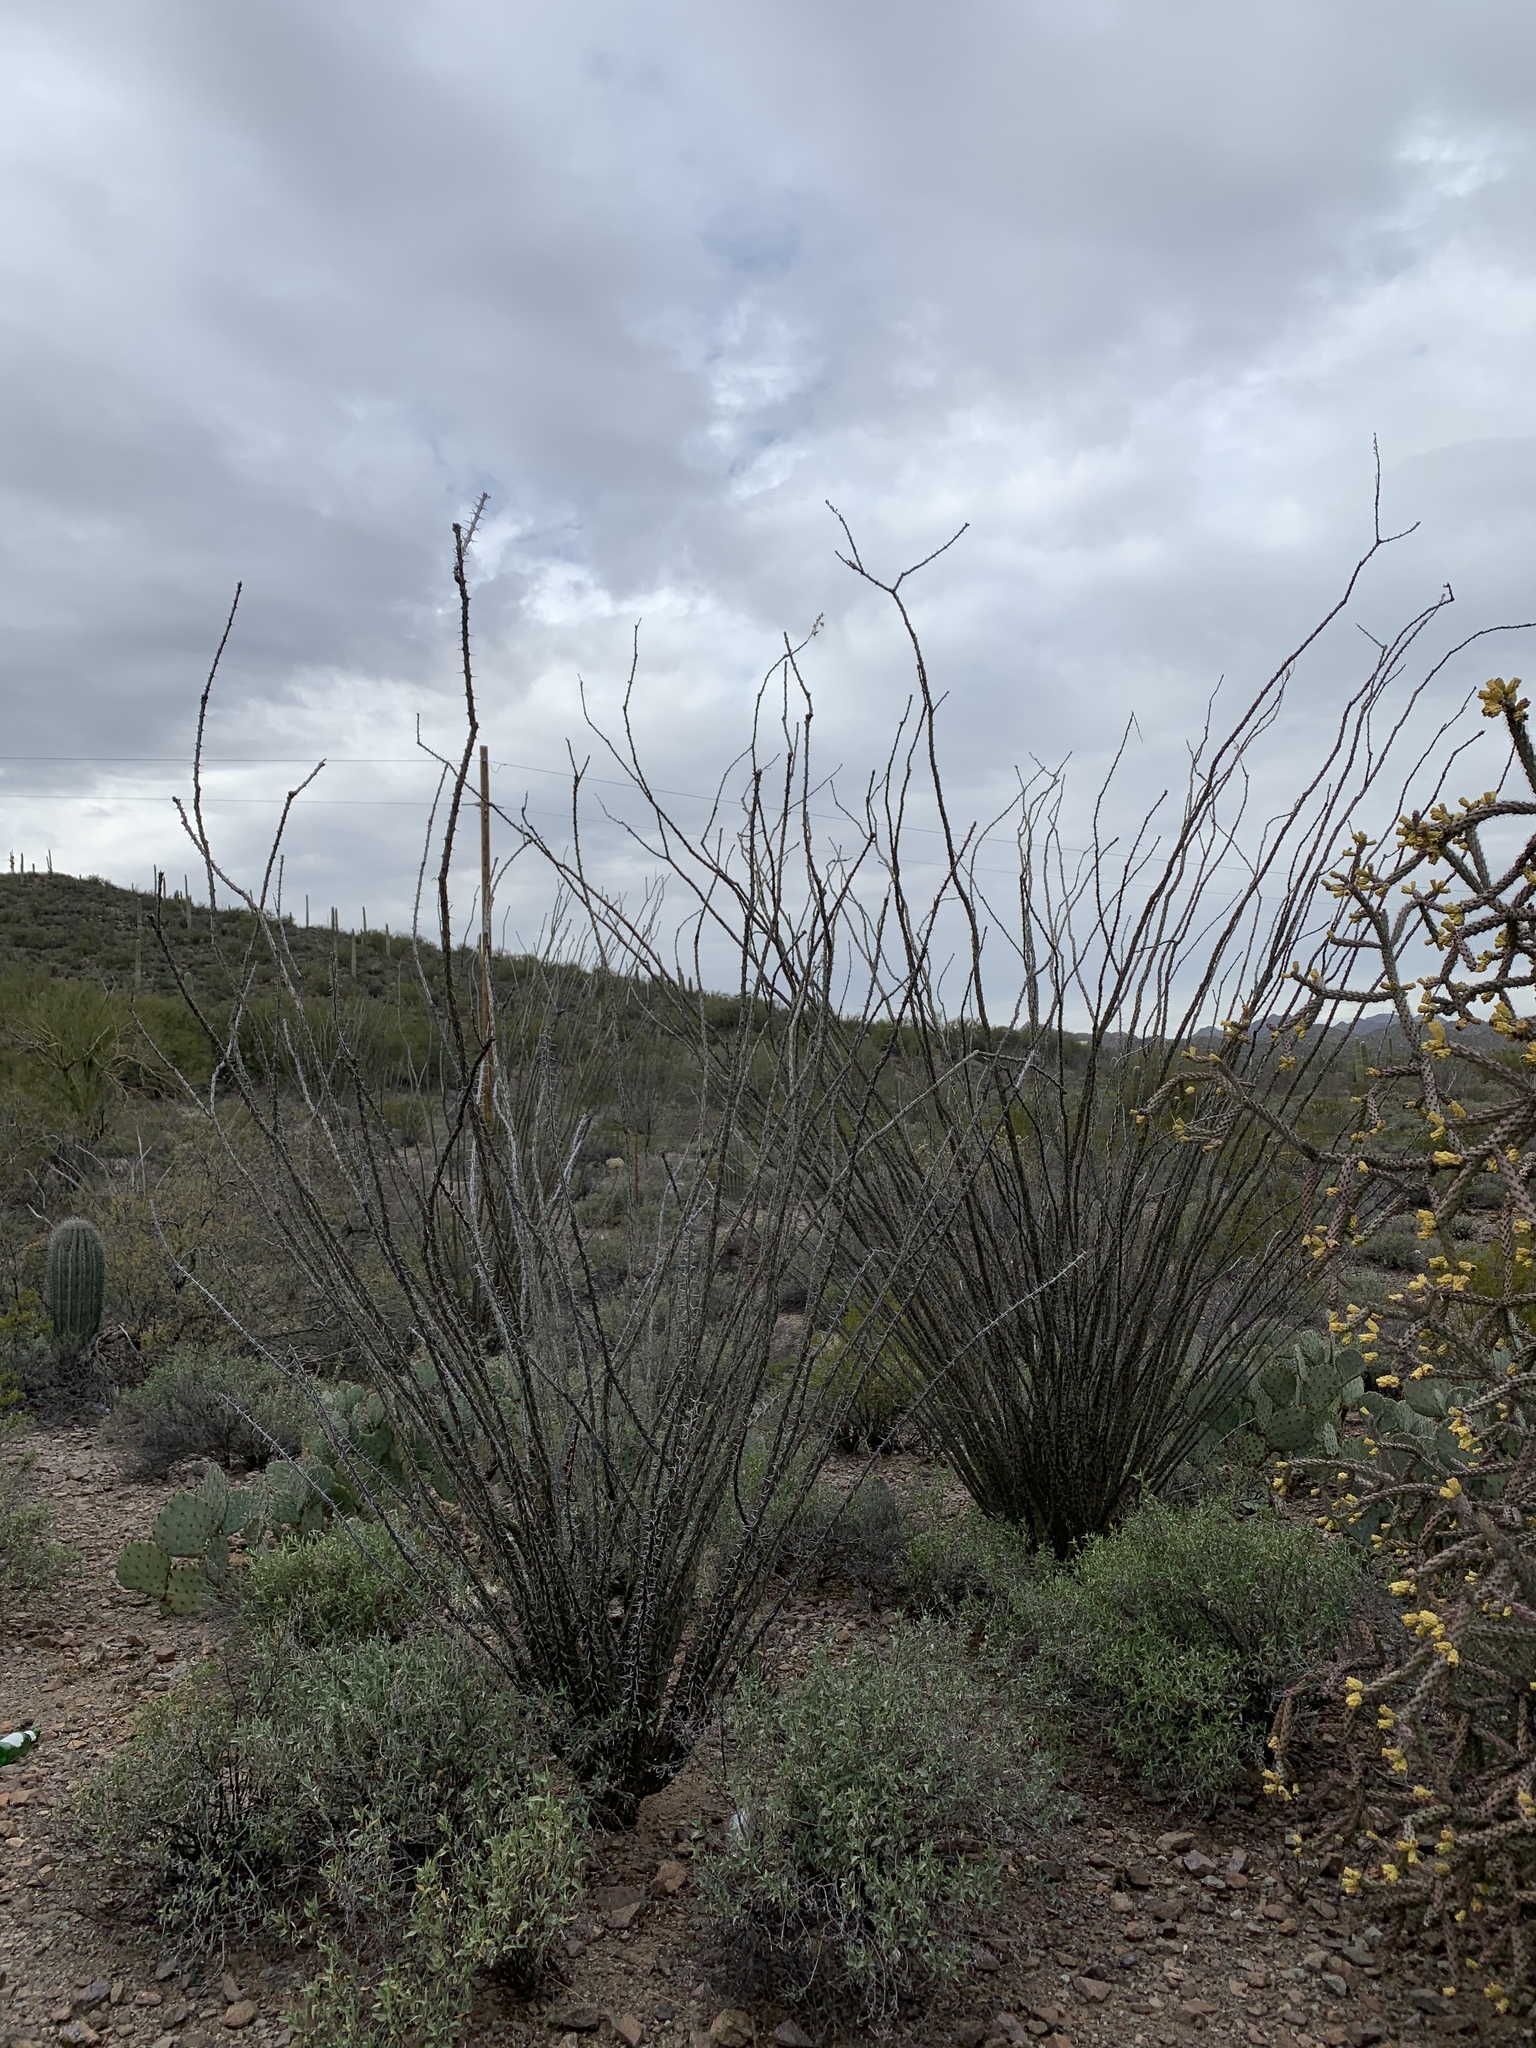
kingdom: Plantae
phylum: Tracheophyta
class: Magnoliopsida
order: Ericales
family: Fouquieriaceae
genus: Fouquieria
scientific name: Fouquieria splendens
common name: Vine-cactus
